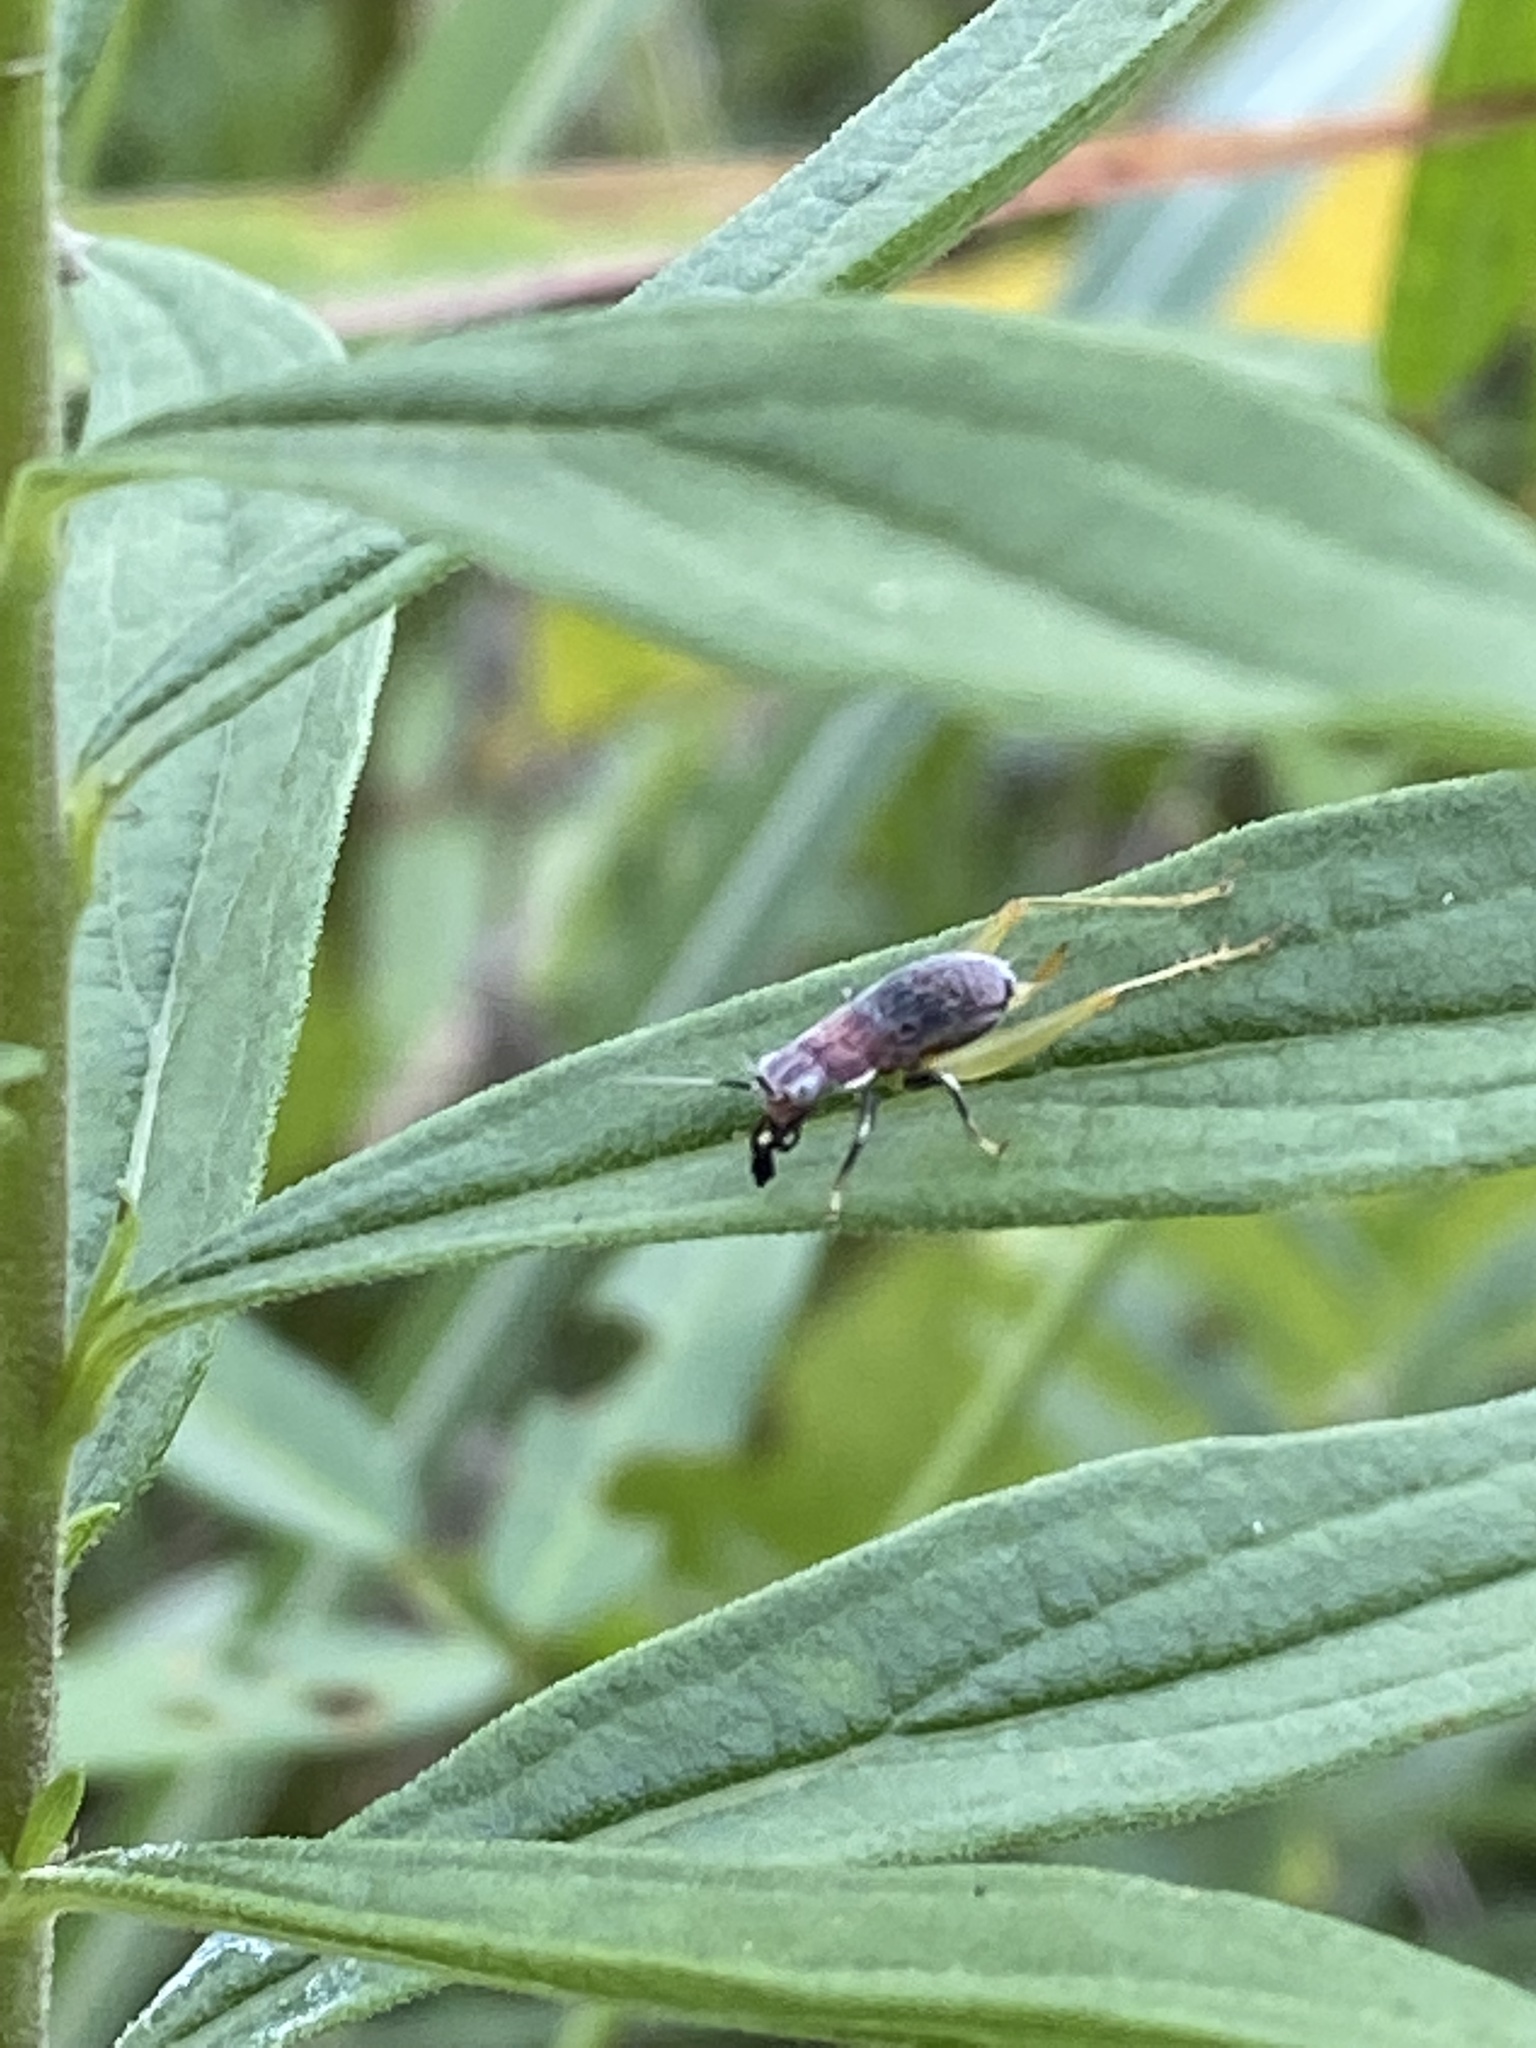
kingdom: Animalia
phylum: Arthropoda
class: Insecta
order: Orthoptera
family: Trigonidiidae
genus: Phyllopalpus
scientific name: Phyllopalpus pulchellus
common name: Handsome trig
